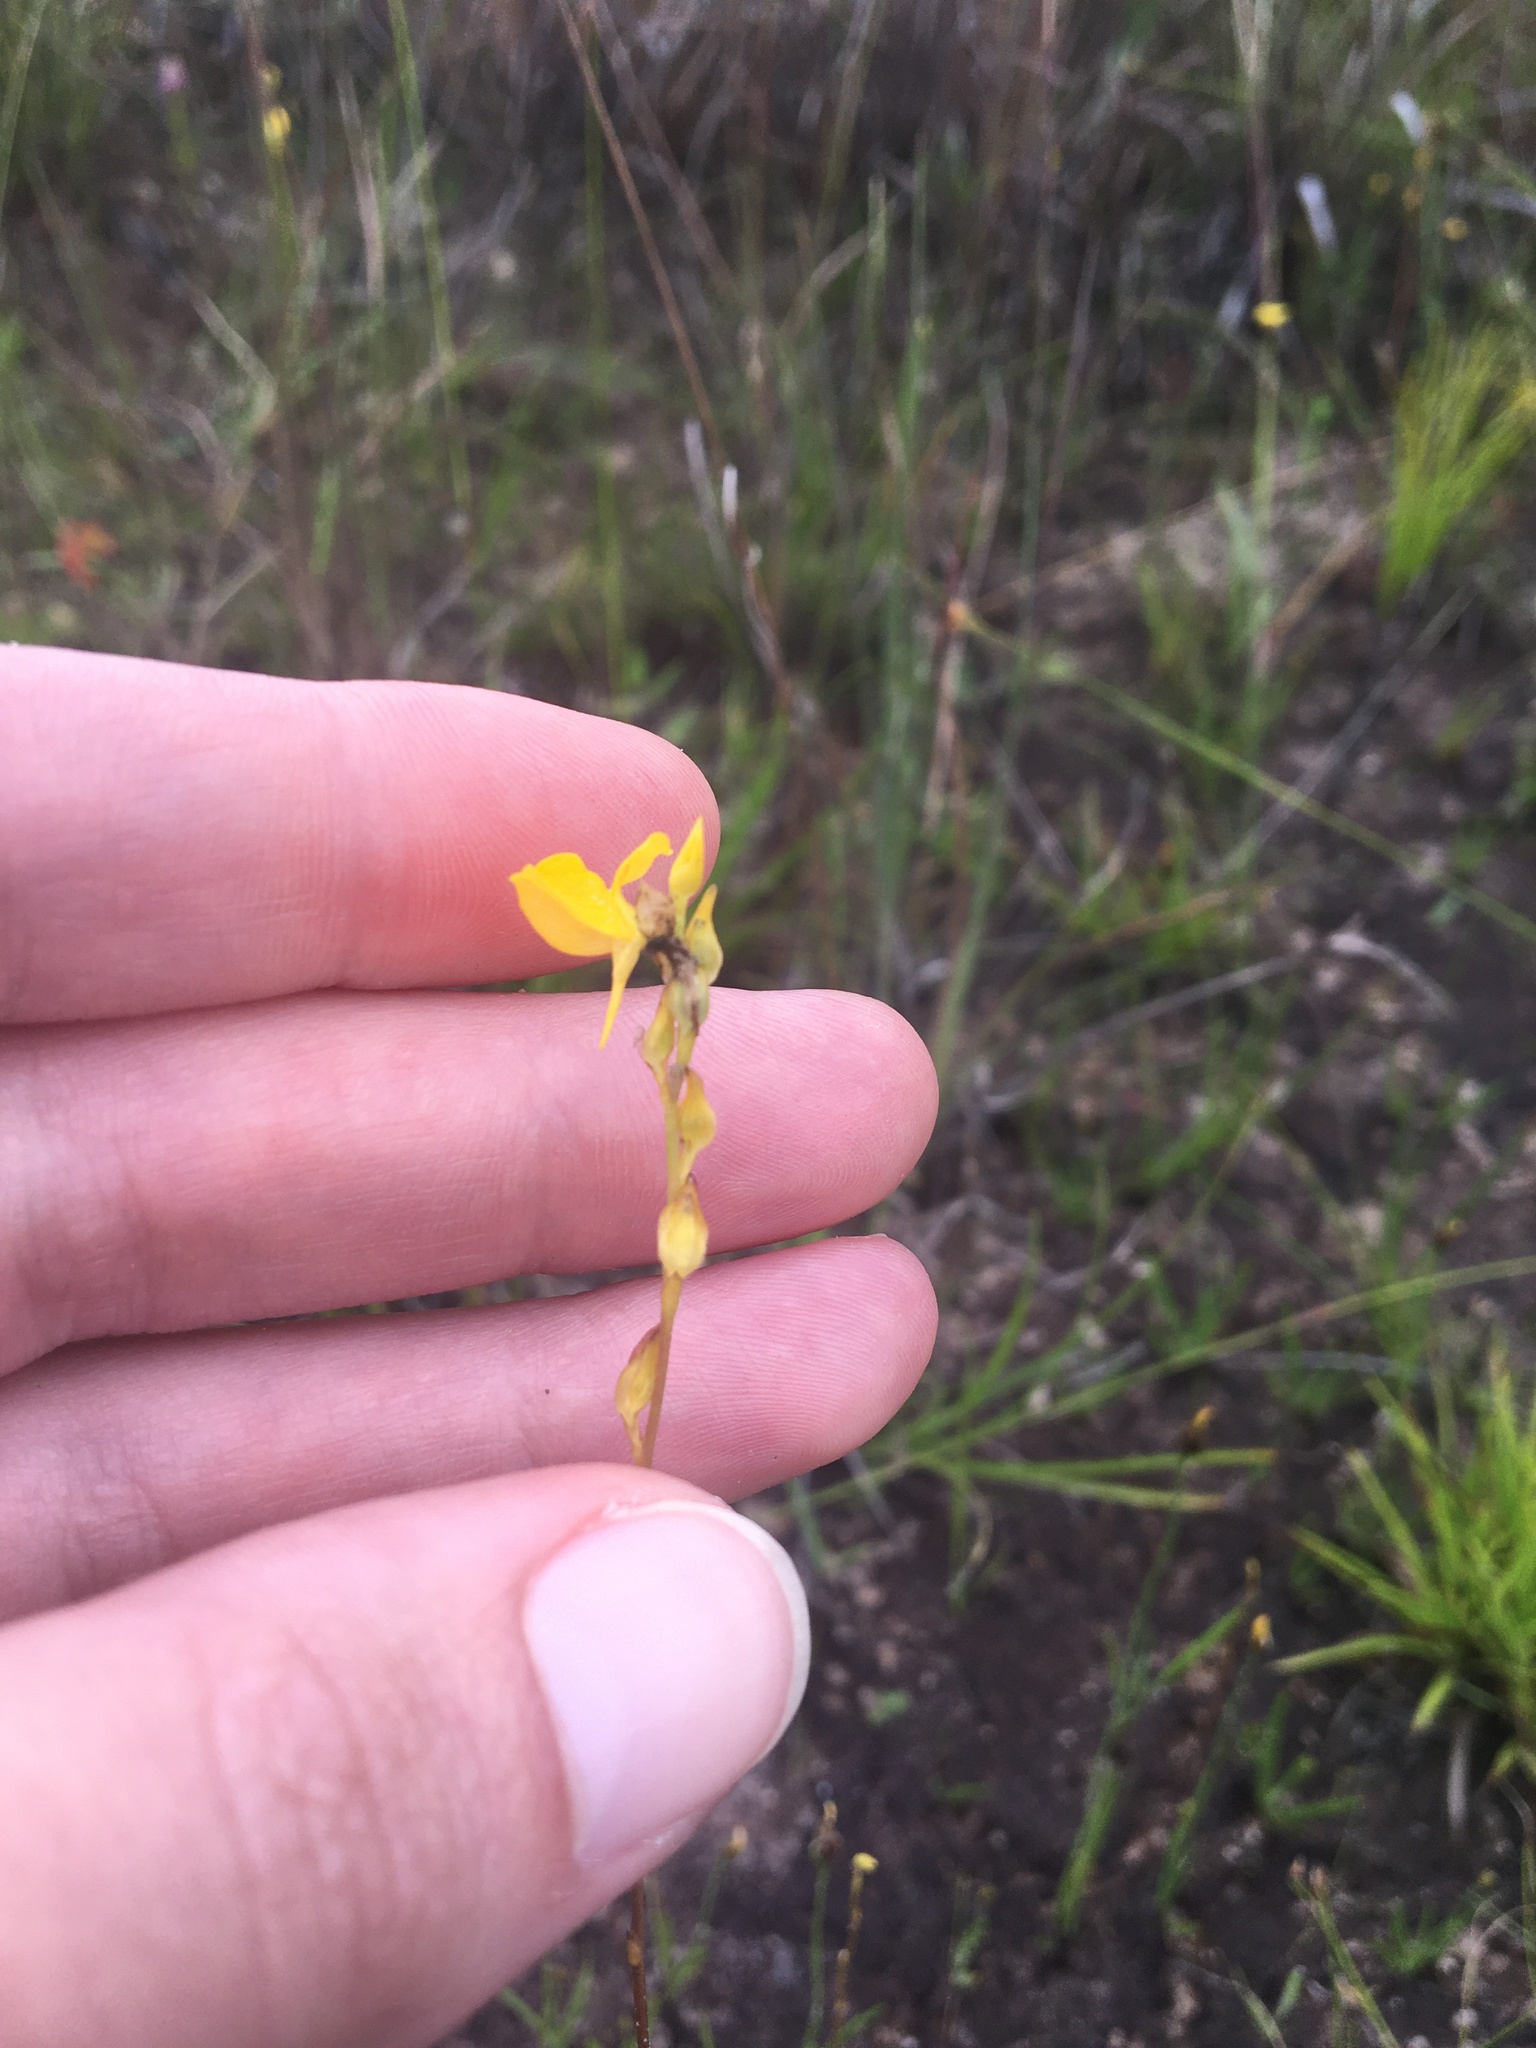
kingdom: Plantae
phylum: Tracheophyta
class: Magnoliopsida
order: Lamiales
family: Lentibulariaceae
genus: Utricularia
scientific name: Utricularia juncea
